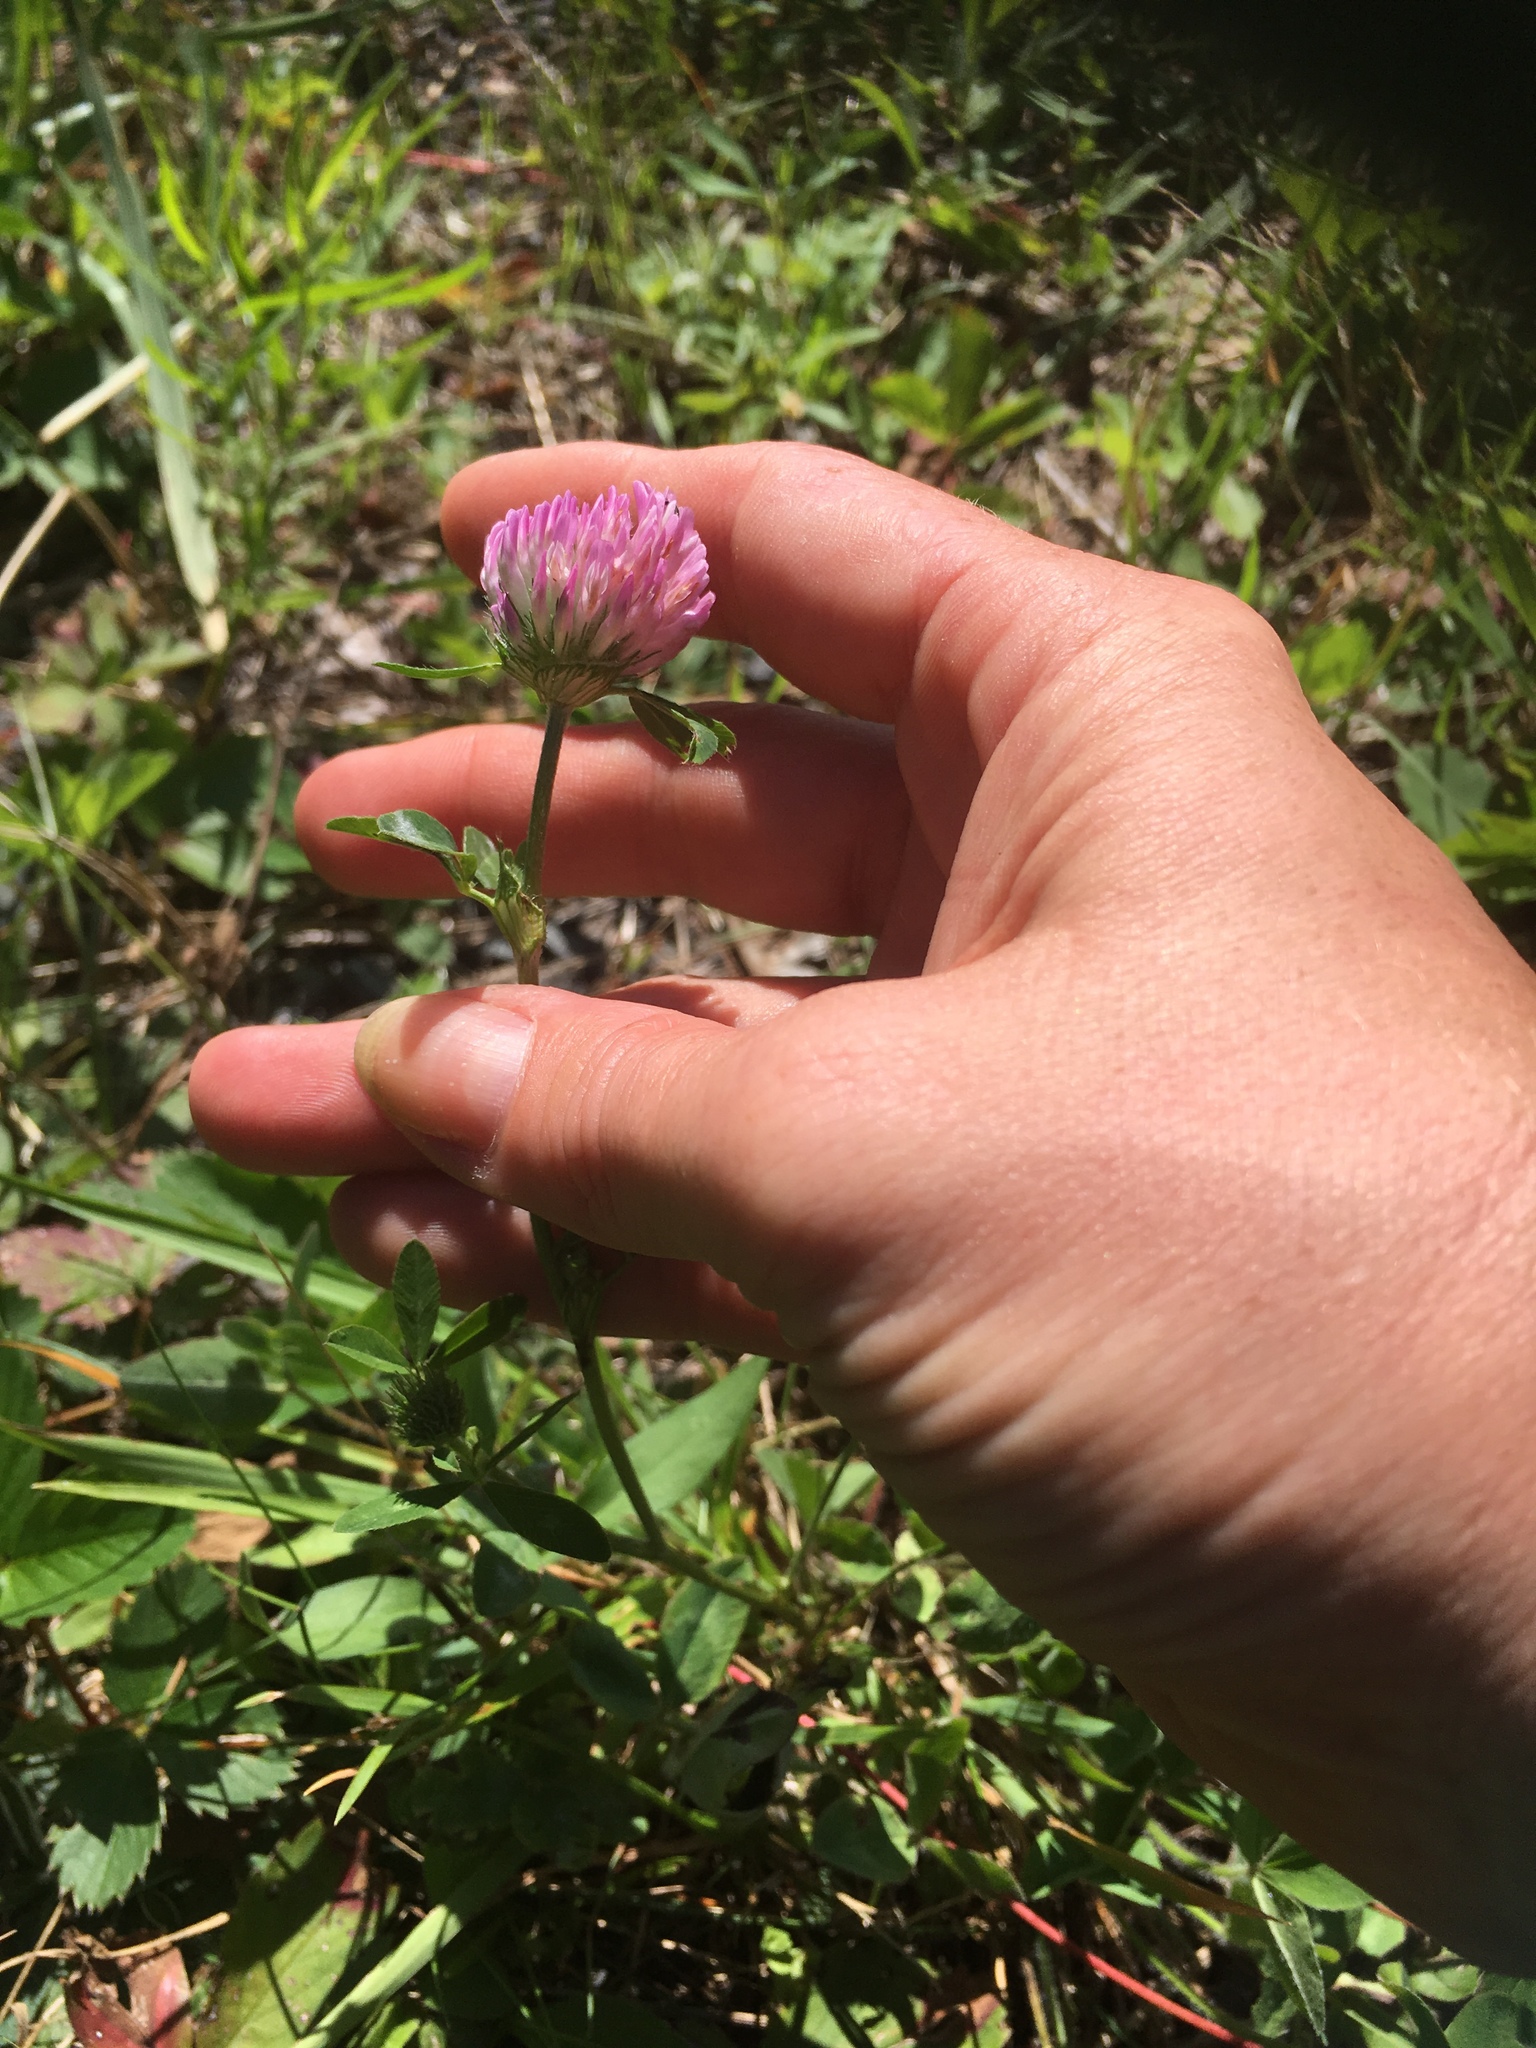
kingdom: Plantae
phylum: Tracheophyta
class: Magnoliopsida
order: Fabales
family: Fabaceae
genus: Trifolium
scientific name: Trifolium pratense
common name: Red clover
